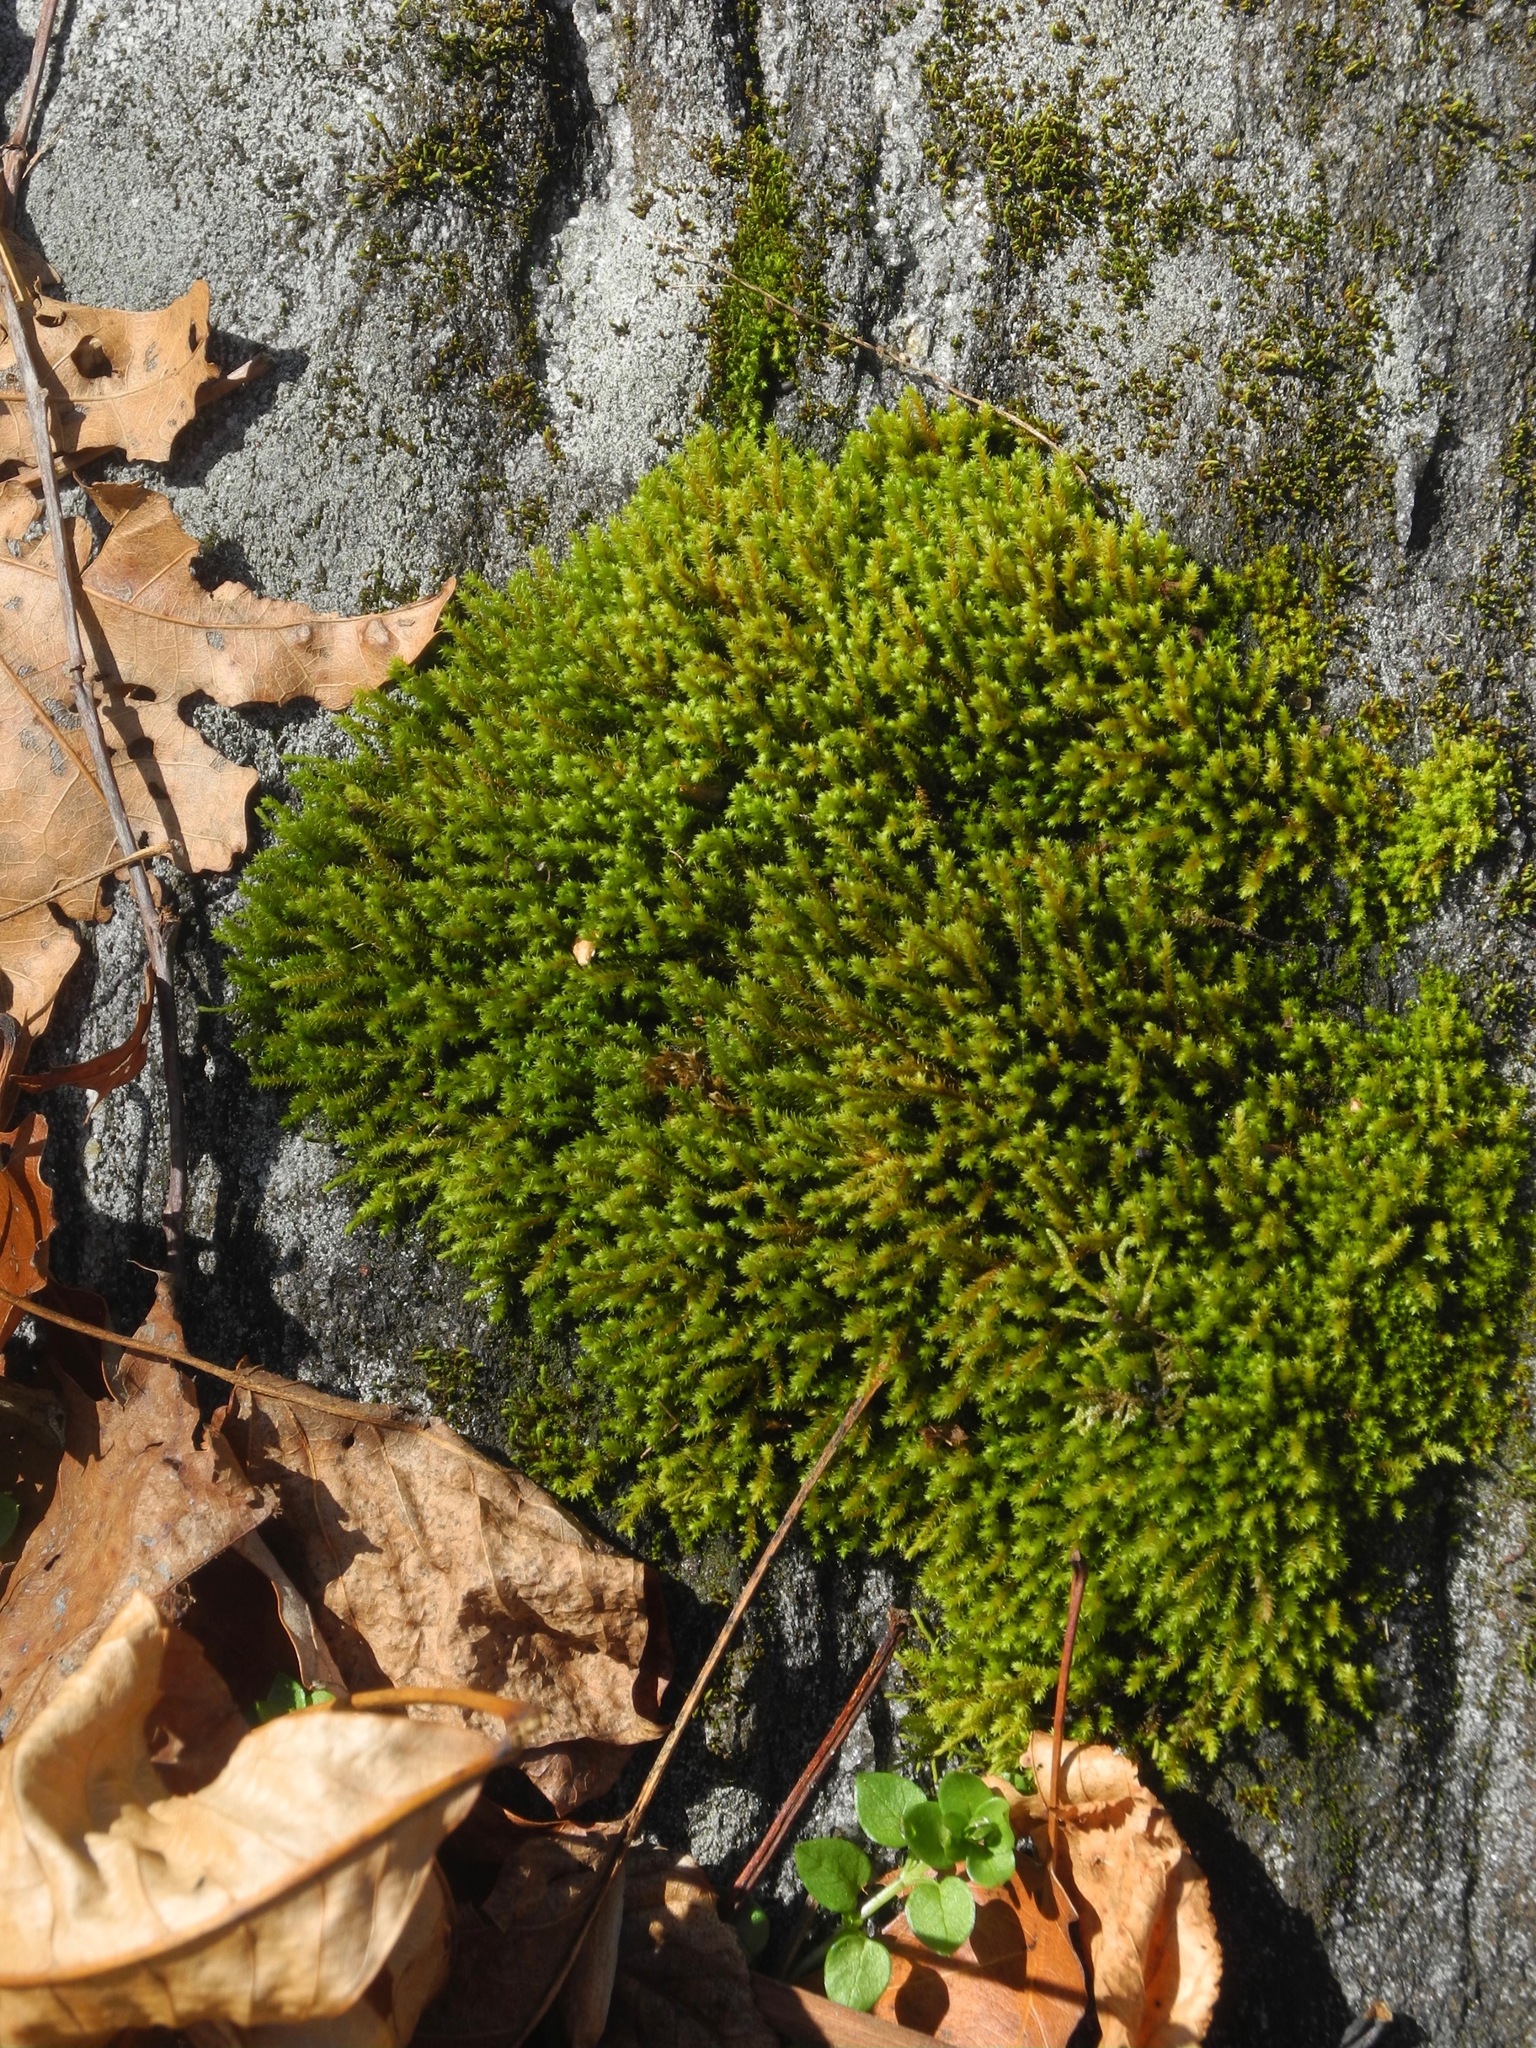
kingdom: Plantae
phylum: Bryophyta
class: Bryopsida
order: Hedwigiales
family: Hedwigiaceae
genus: Hedwigia
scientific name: Hedwigia ciliata
